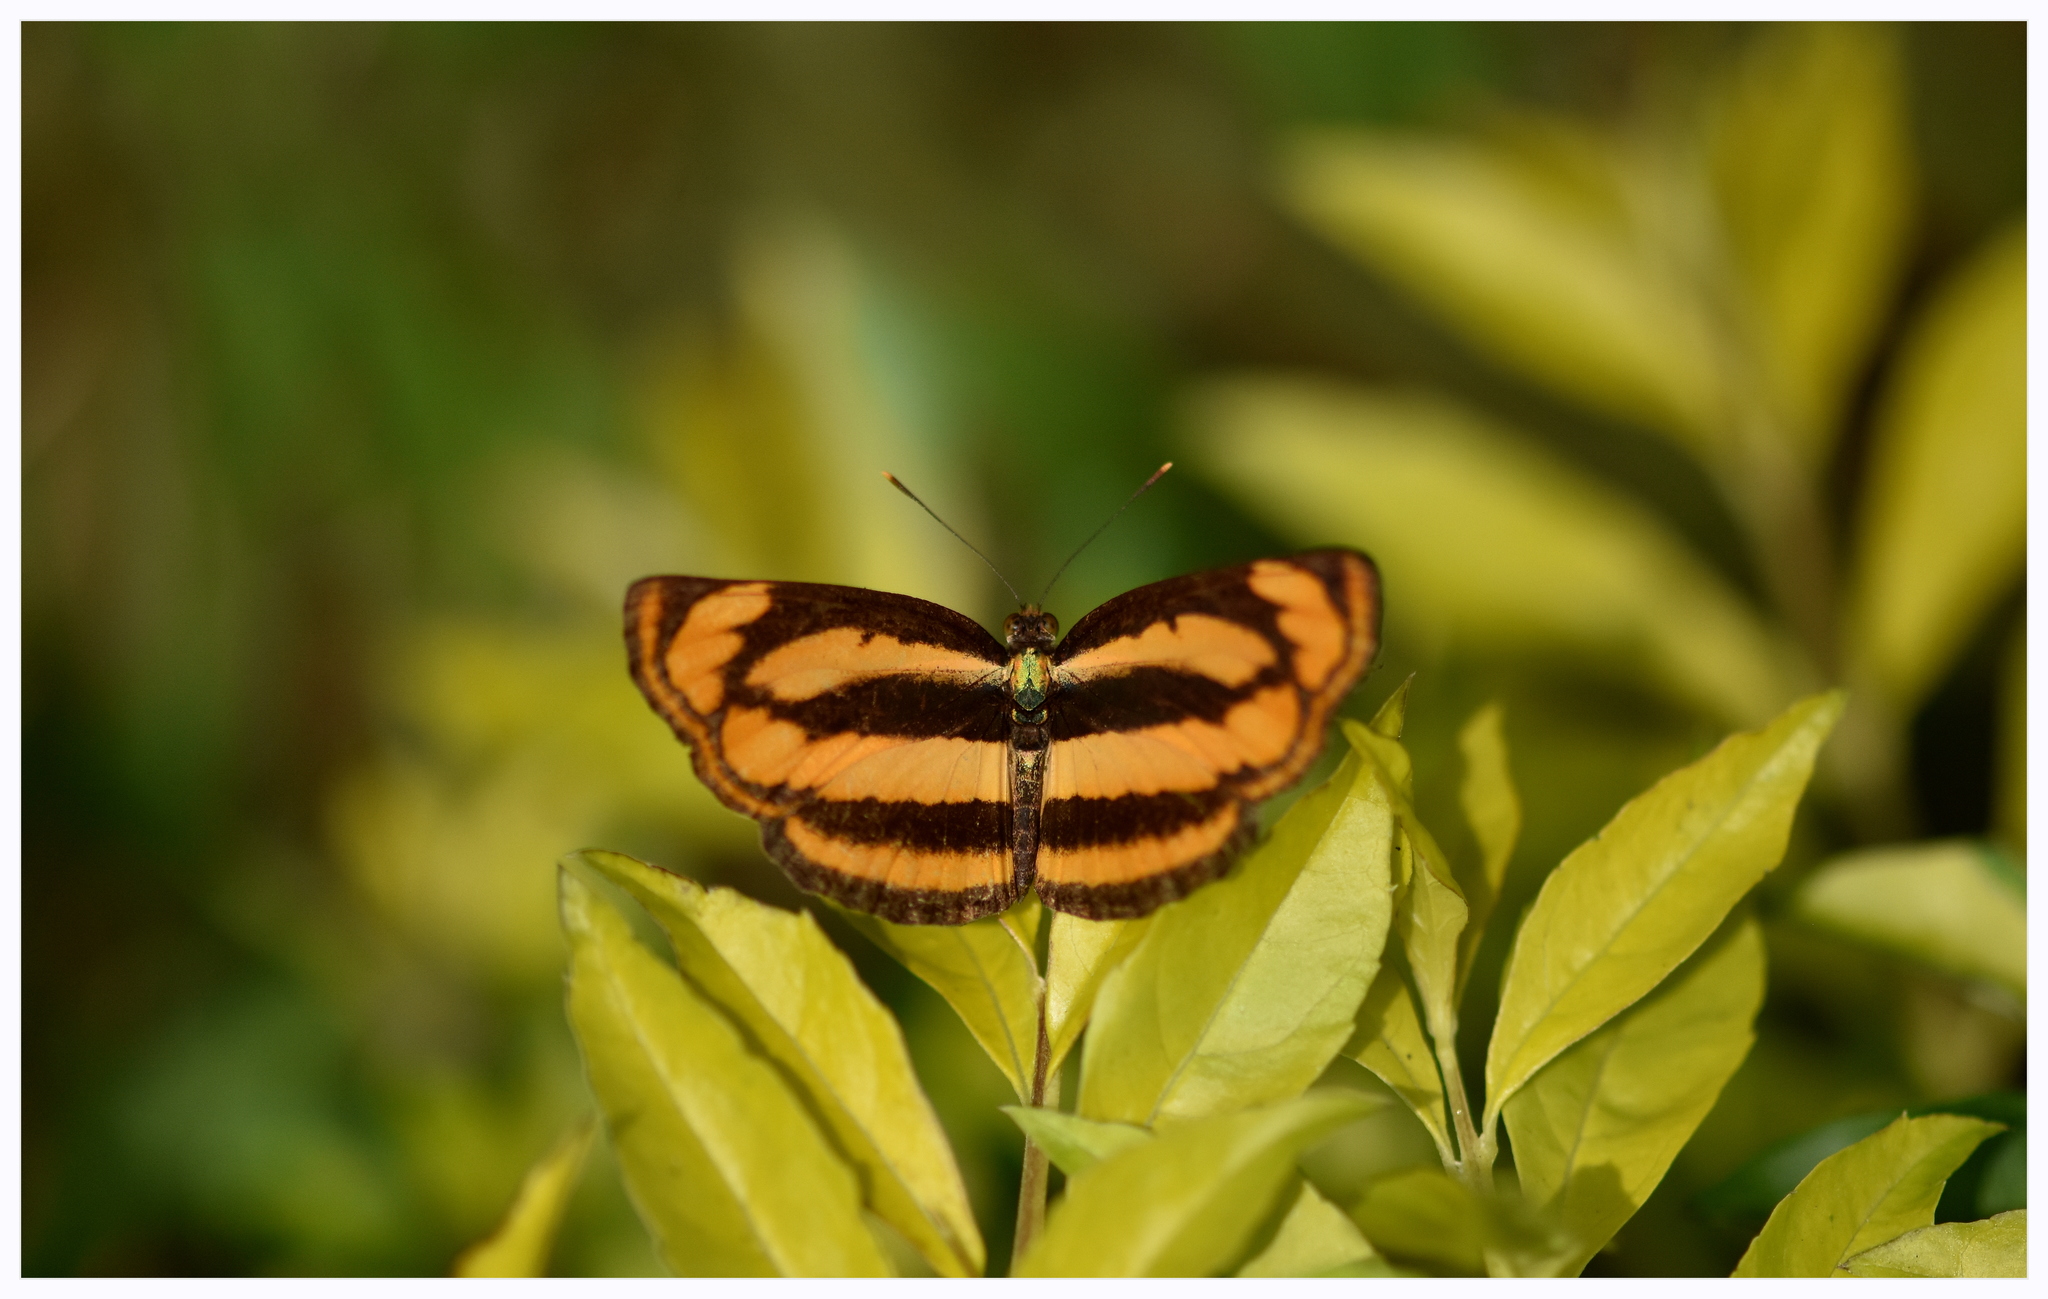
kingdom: Animalia
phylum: Arthropoda
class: Insecta
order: Lepidoptera
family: Nymphalidae
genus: Pantoporia
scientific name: Pantoporia hordonia
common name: Common lascar
